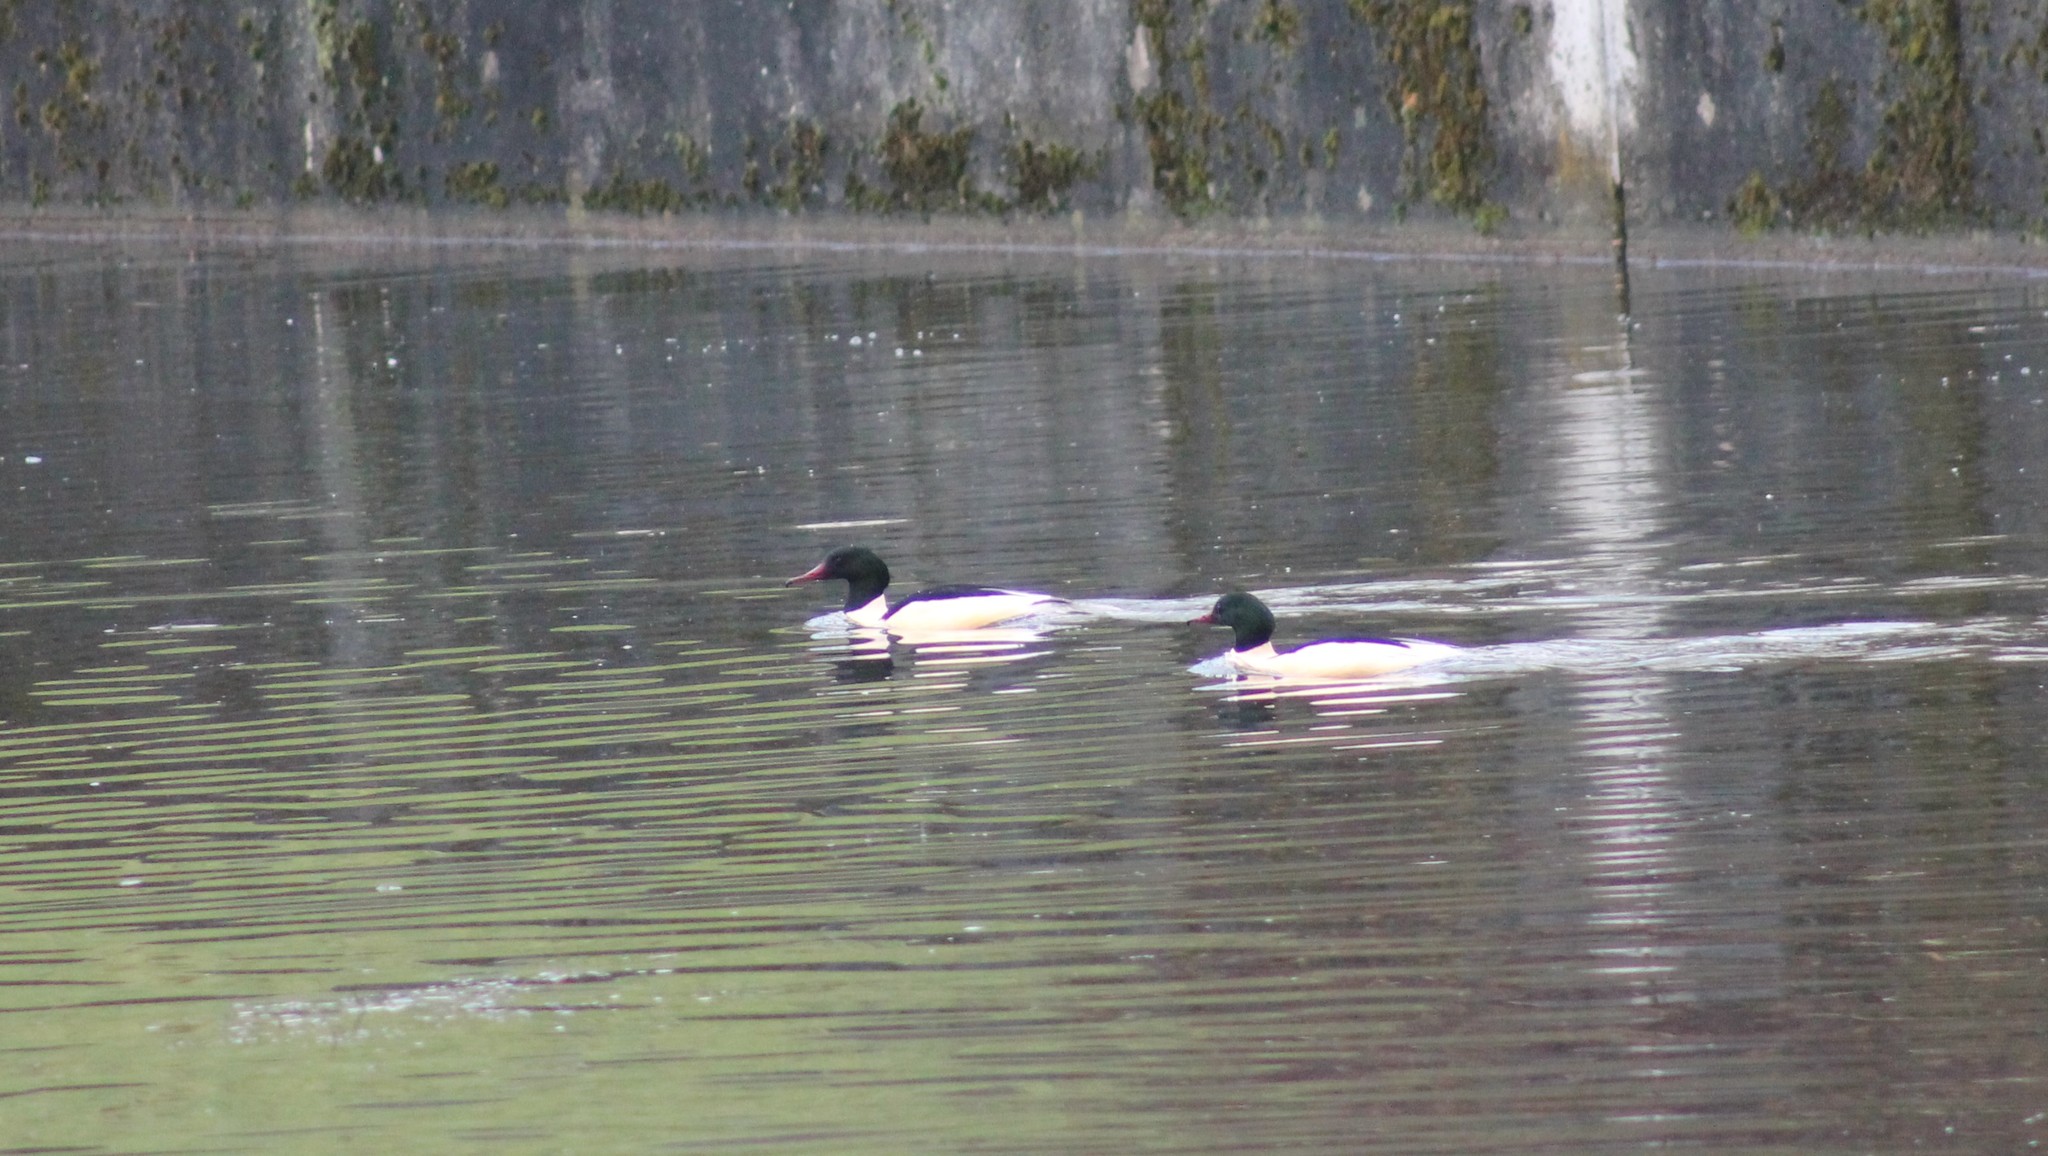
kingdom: Animalia
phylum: Chordata
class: Aves
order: Anseriformes
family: Anatidae
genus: Mergus
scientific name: Mergus merganser
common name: Common merganser
